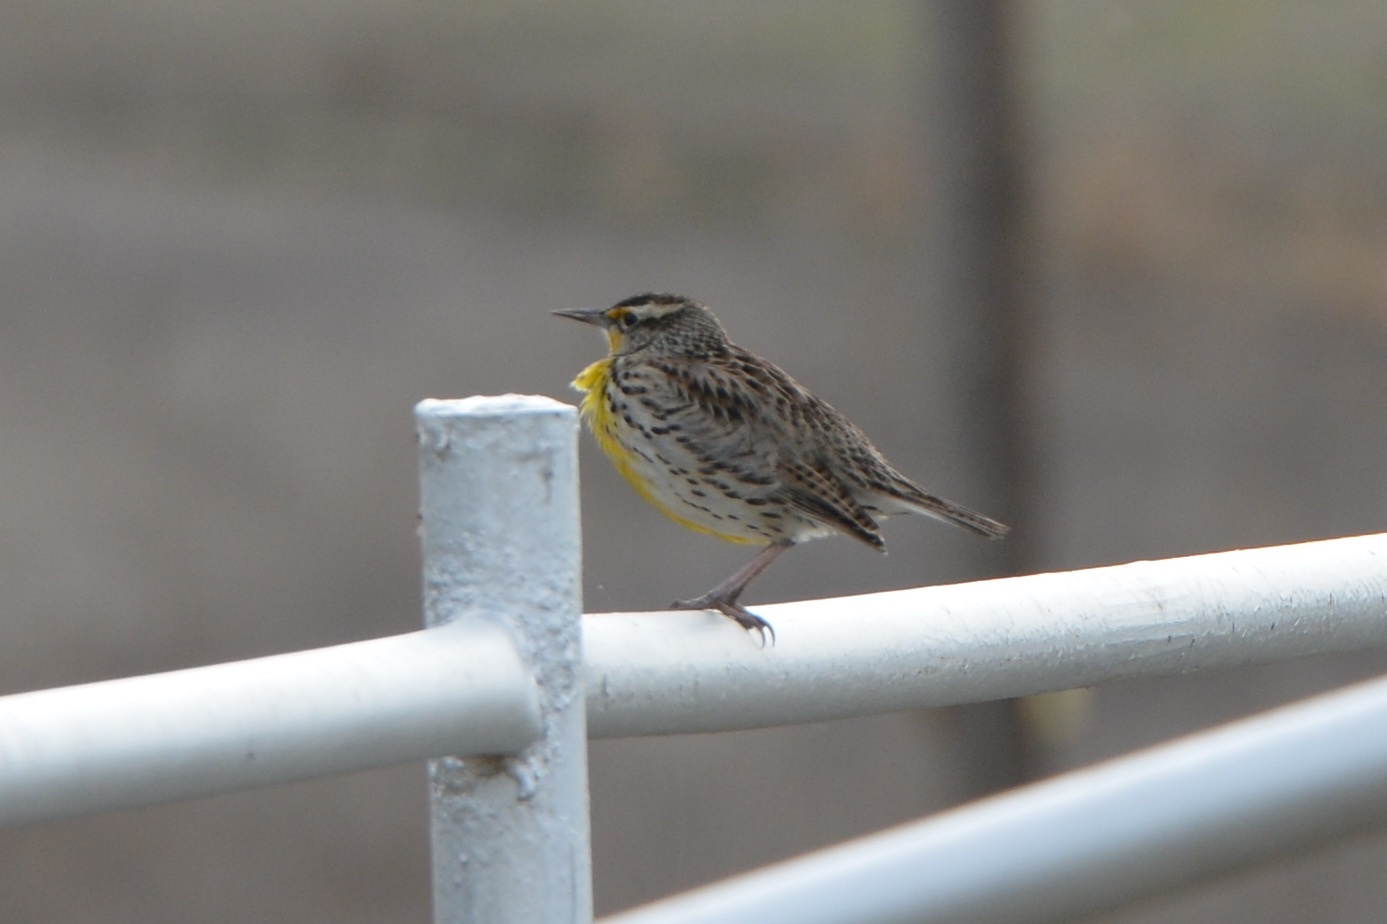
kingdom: Animalia
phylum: Chordata
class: Aves
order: Passeriformes
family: Icteridae
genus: Sturnella
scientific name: Sturnella neglecta
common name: Western meadowlark
